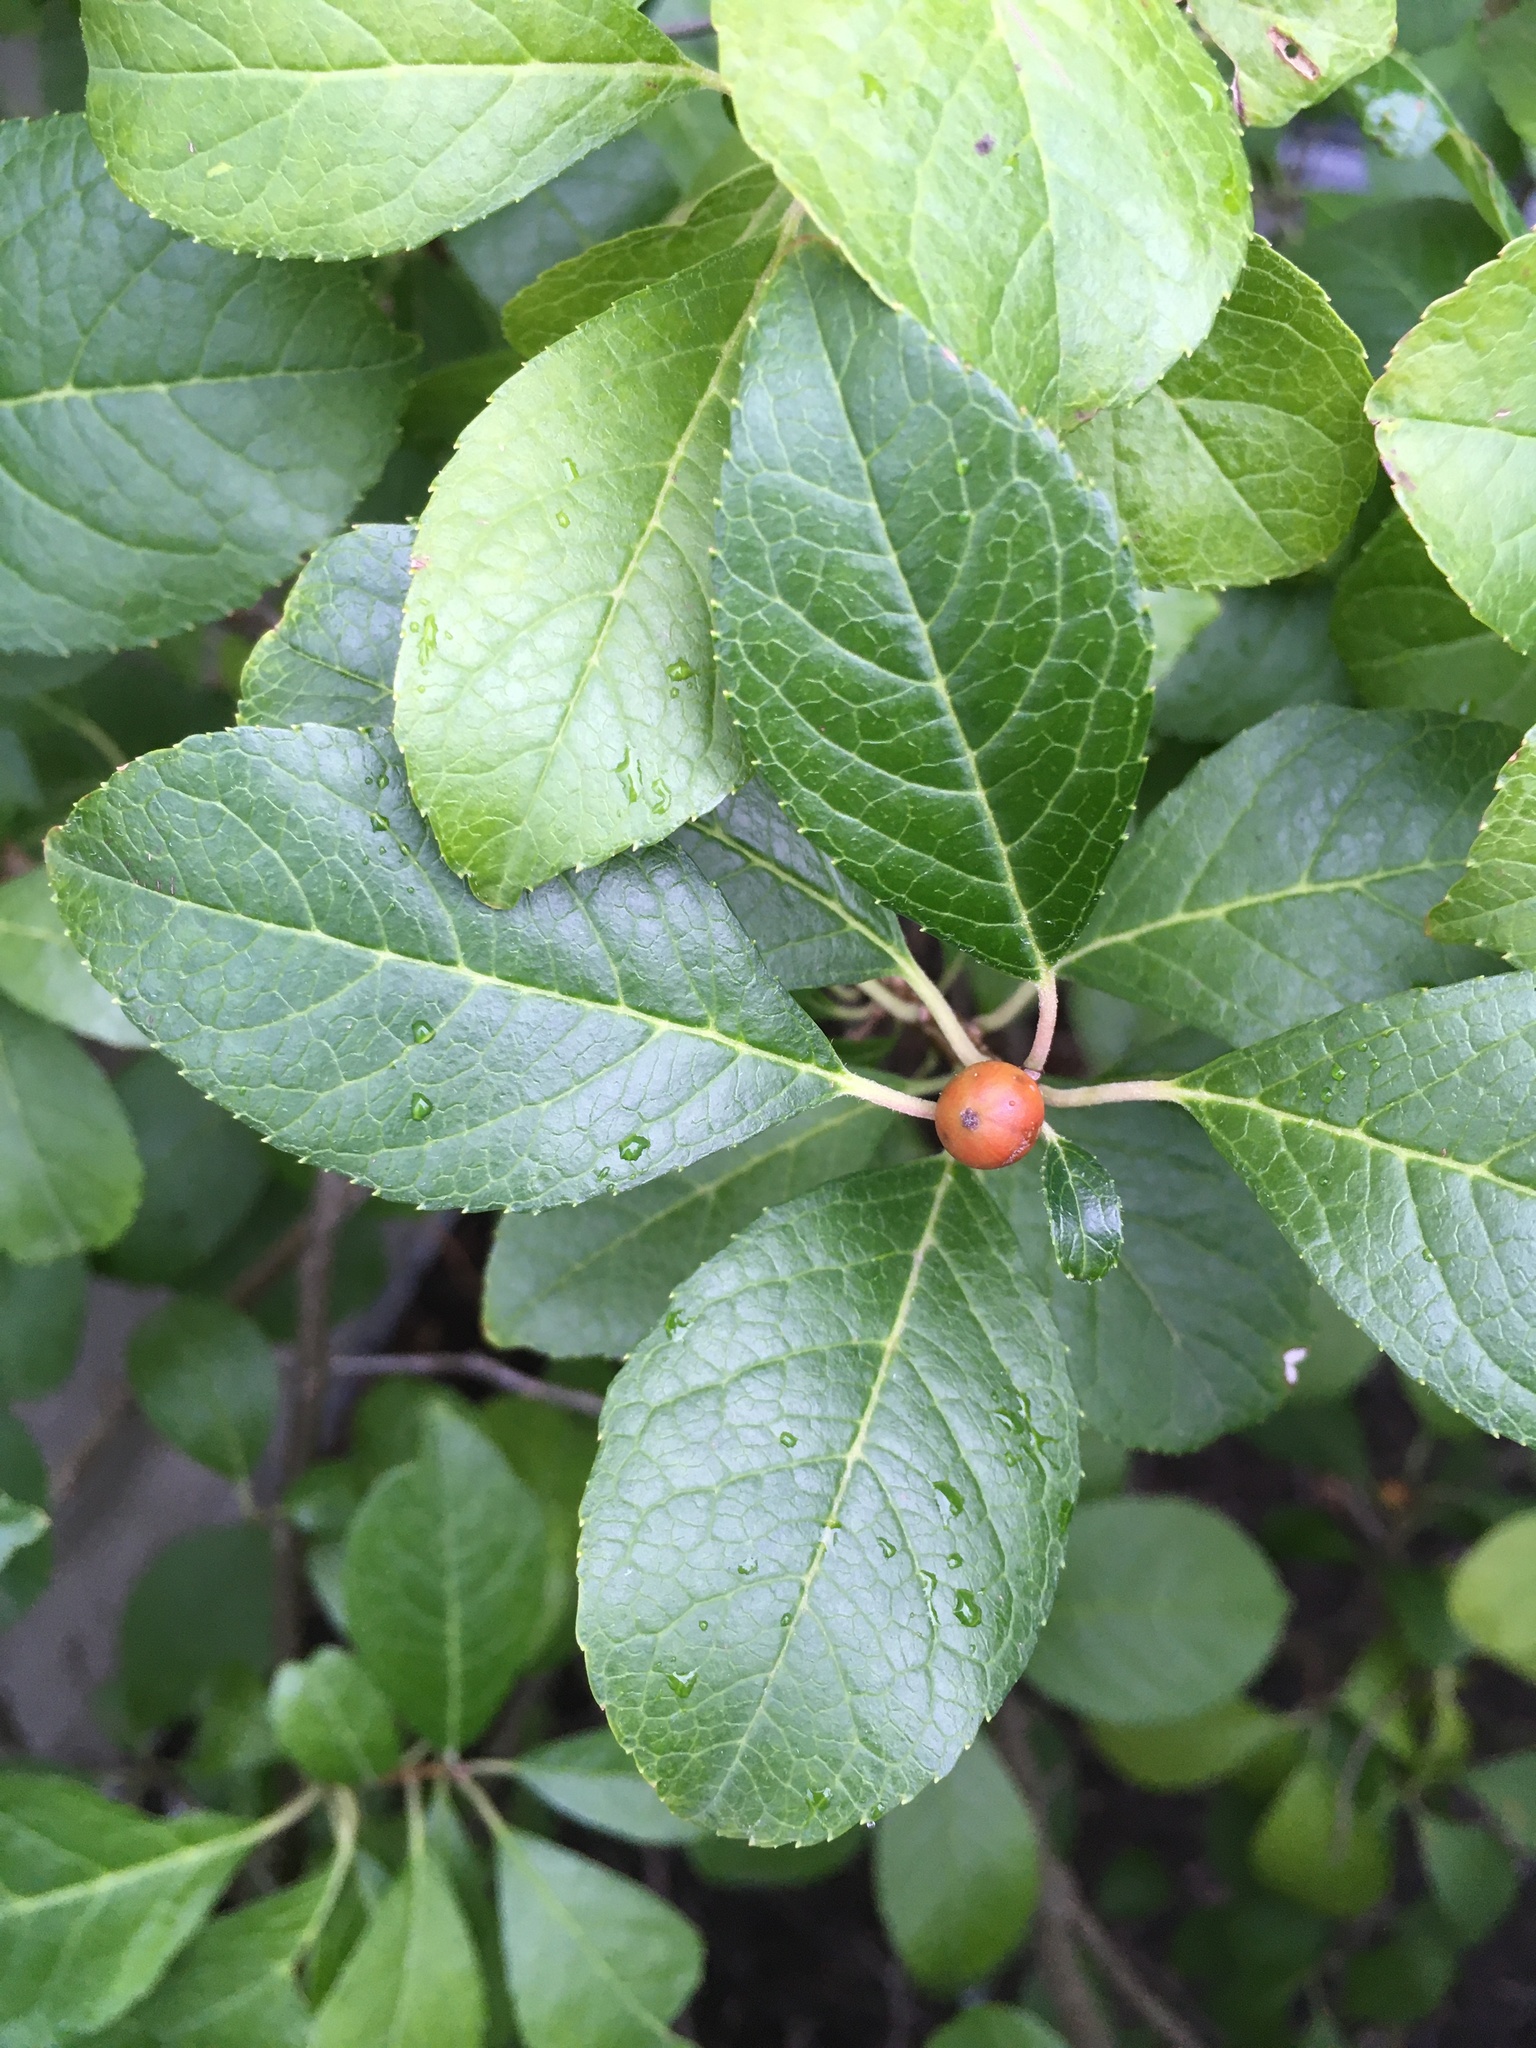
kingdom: Plantae
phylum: Tracheophyta
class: Magnoliopsida
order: Aquifoliales
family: Aquifoliaceae
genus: Ilex
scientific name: Ilex verticillata
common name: Virginia winterberry
